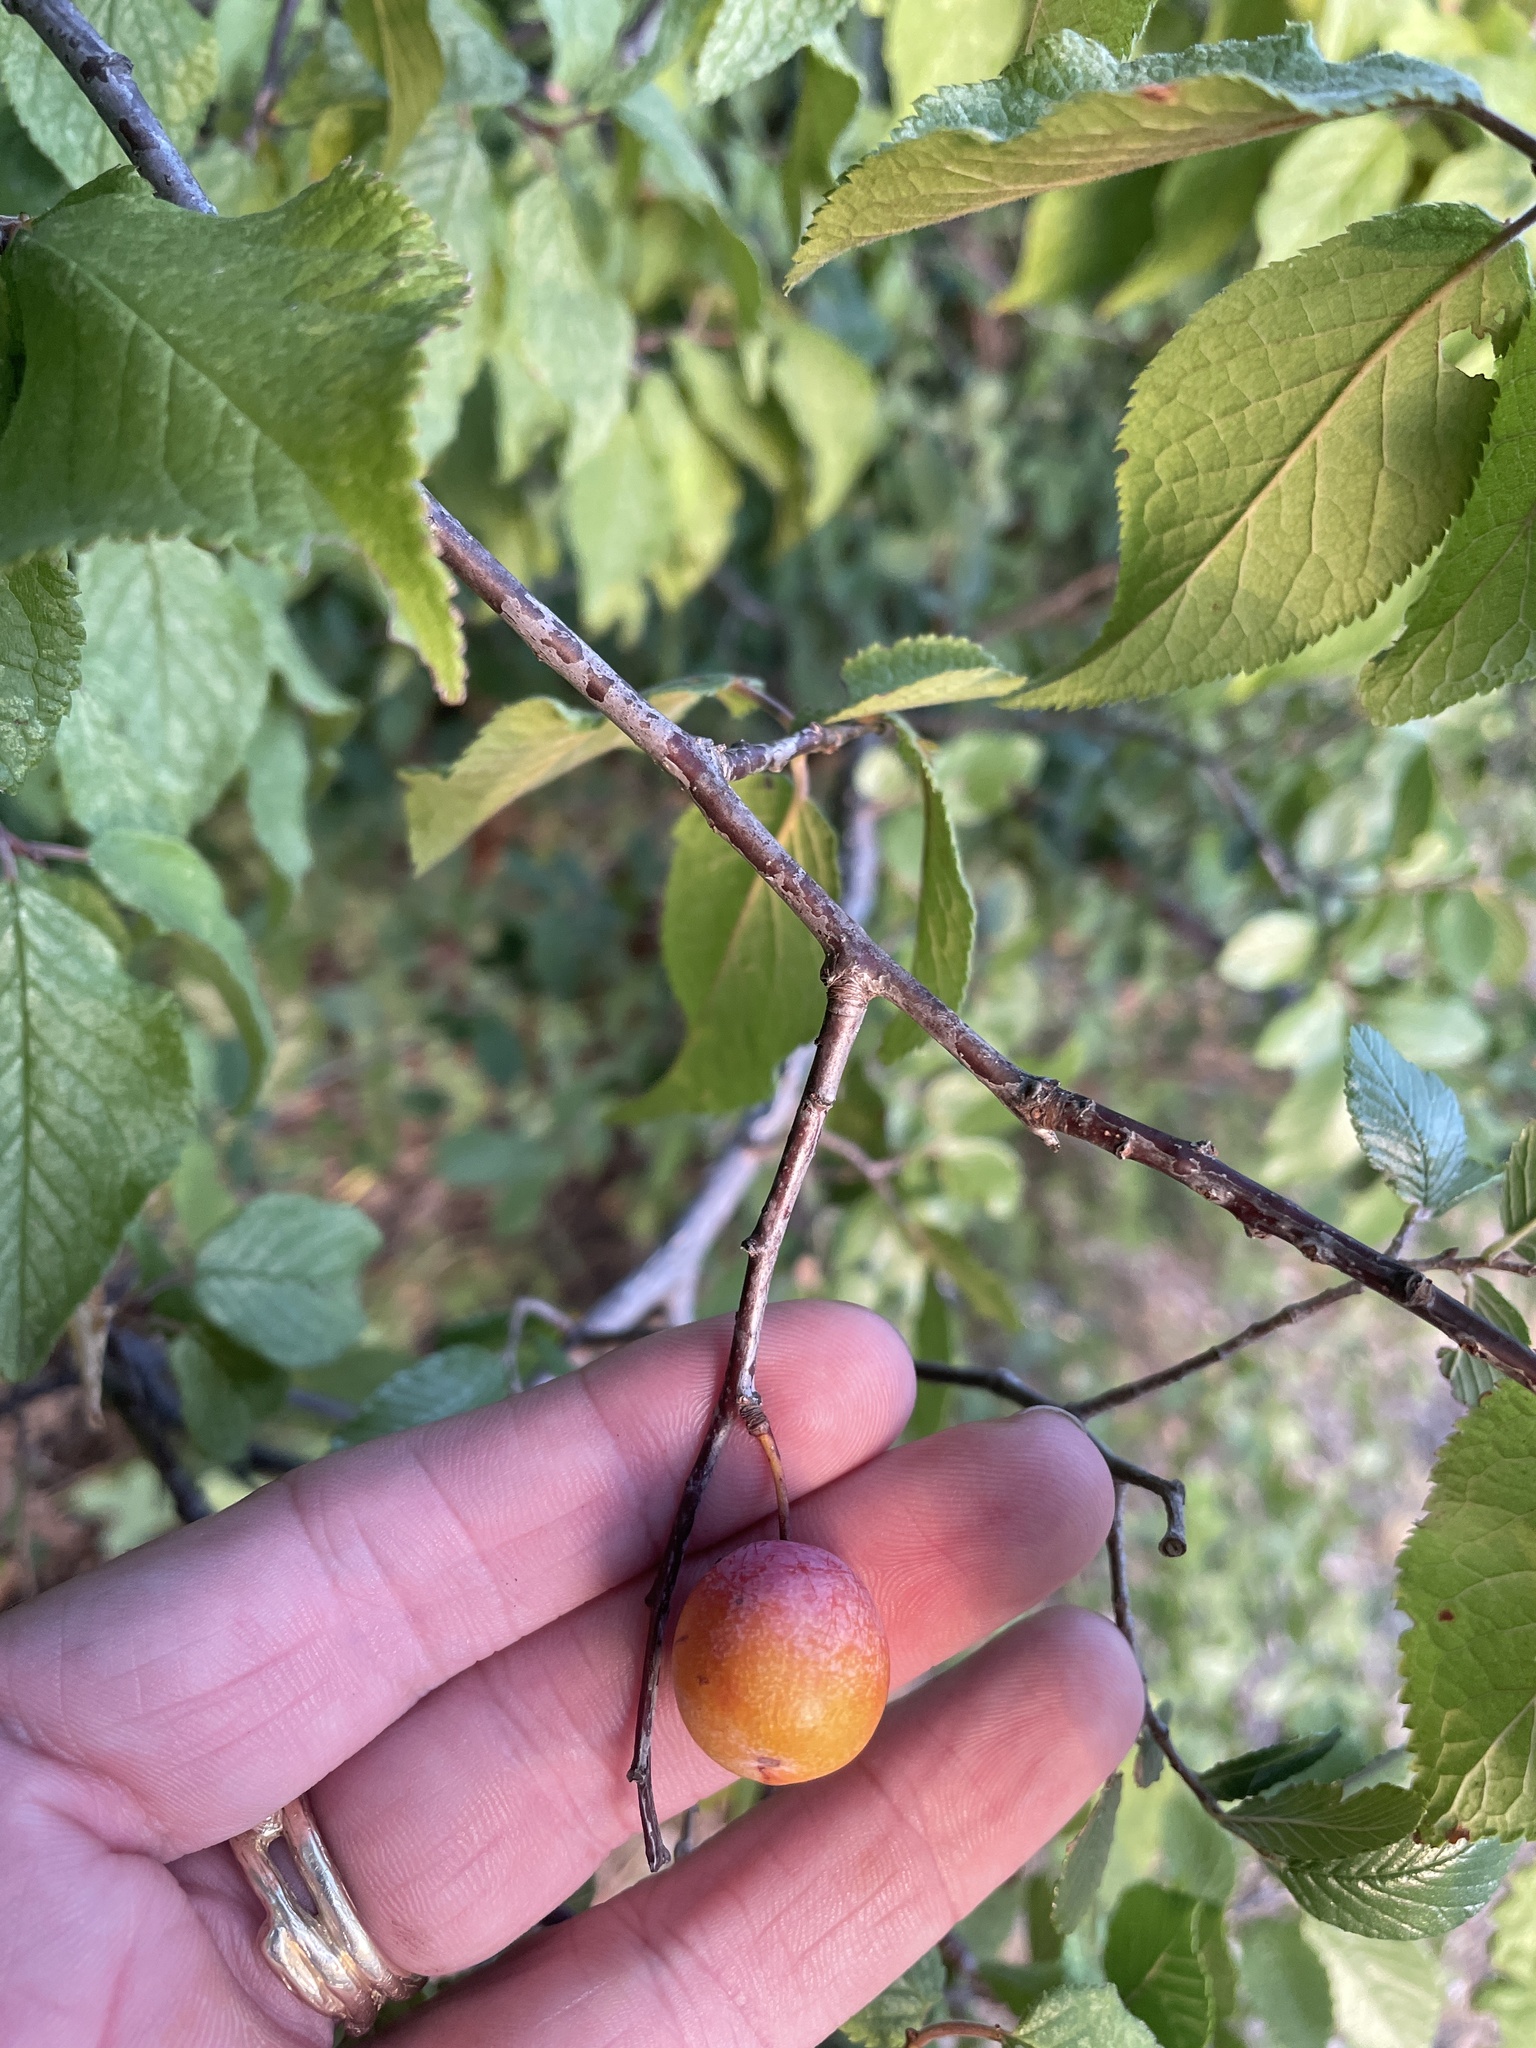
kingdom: Plantae
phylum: Tracheophyta
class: Magnoliopsida
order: Rosales
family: Rosaceae
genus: Prunus
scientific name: Prunus mexicana
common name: Mexican plum
